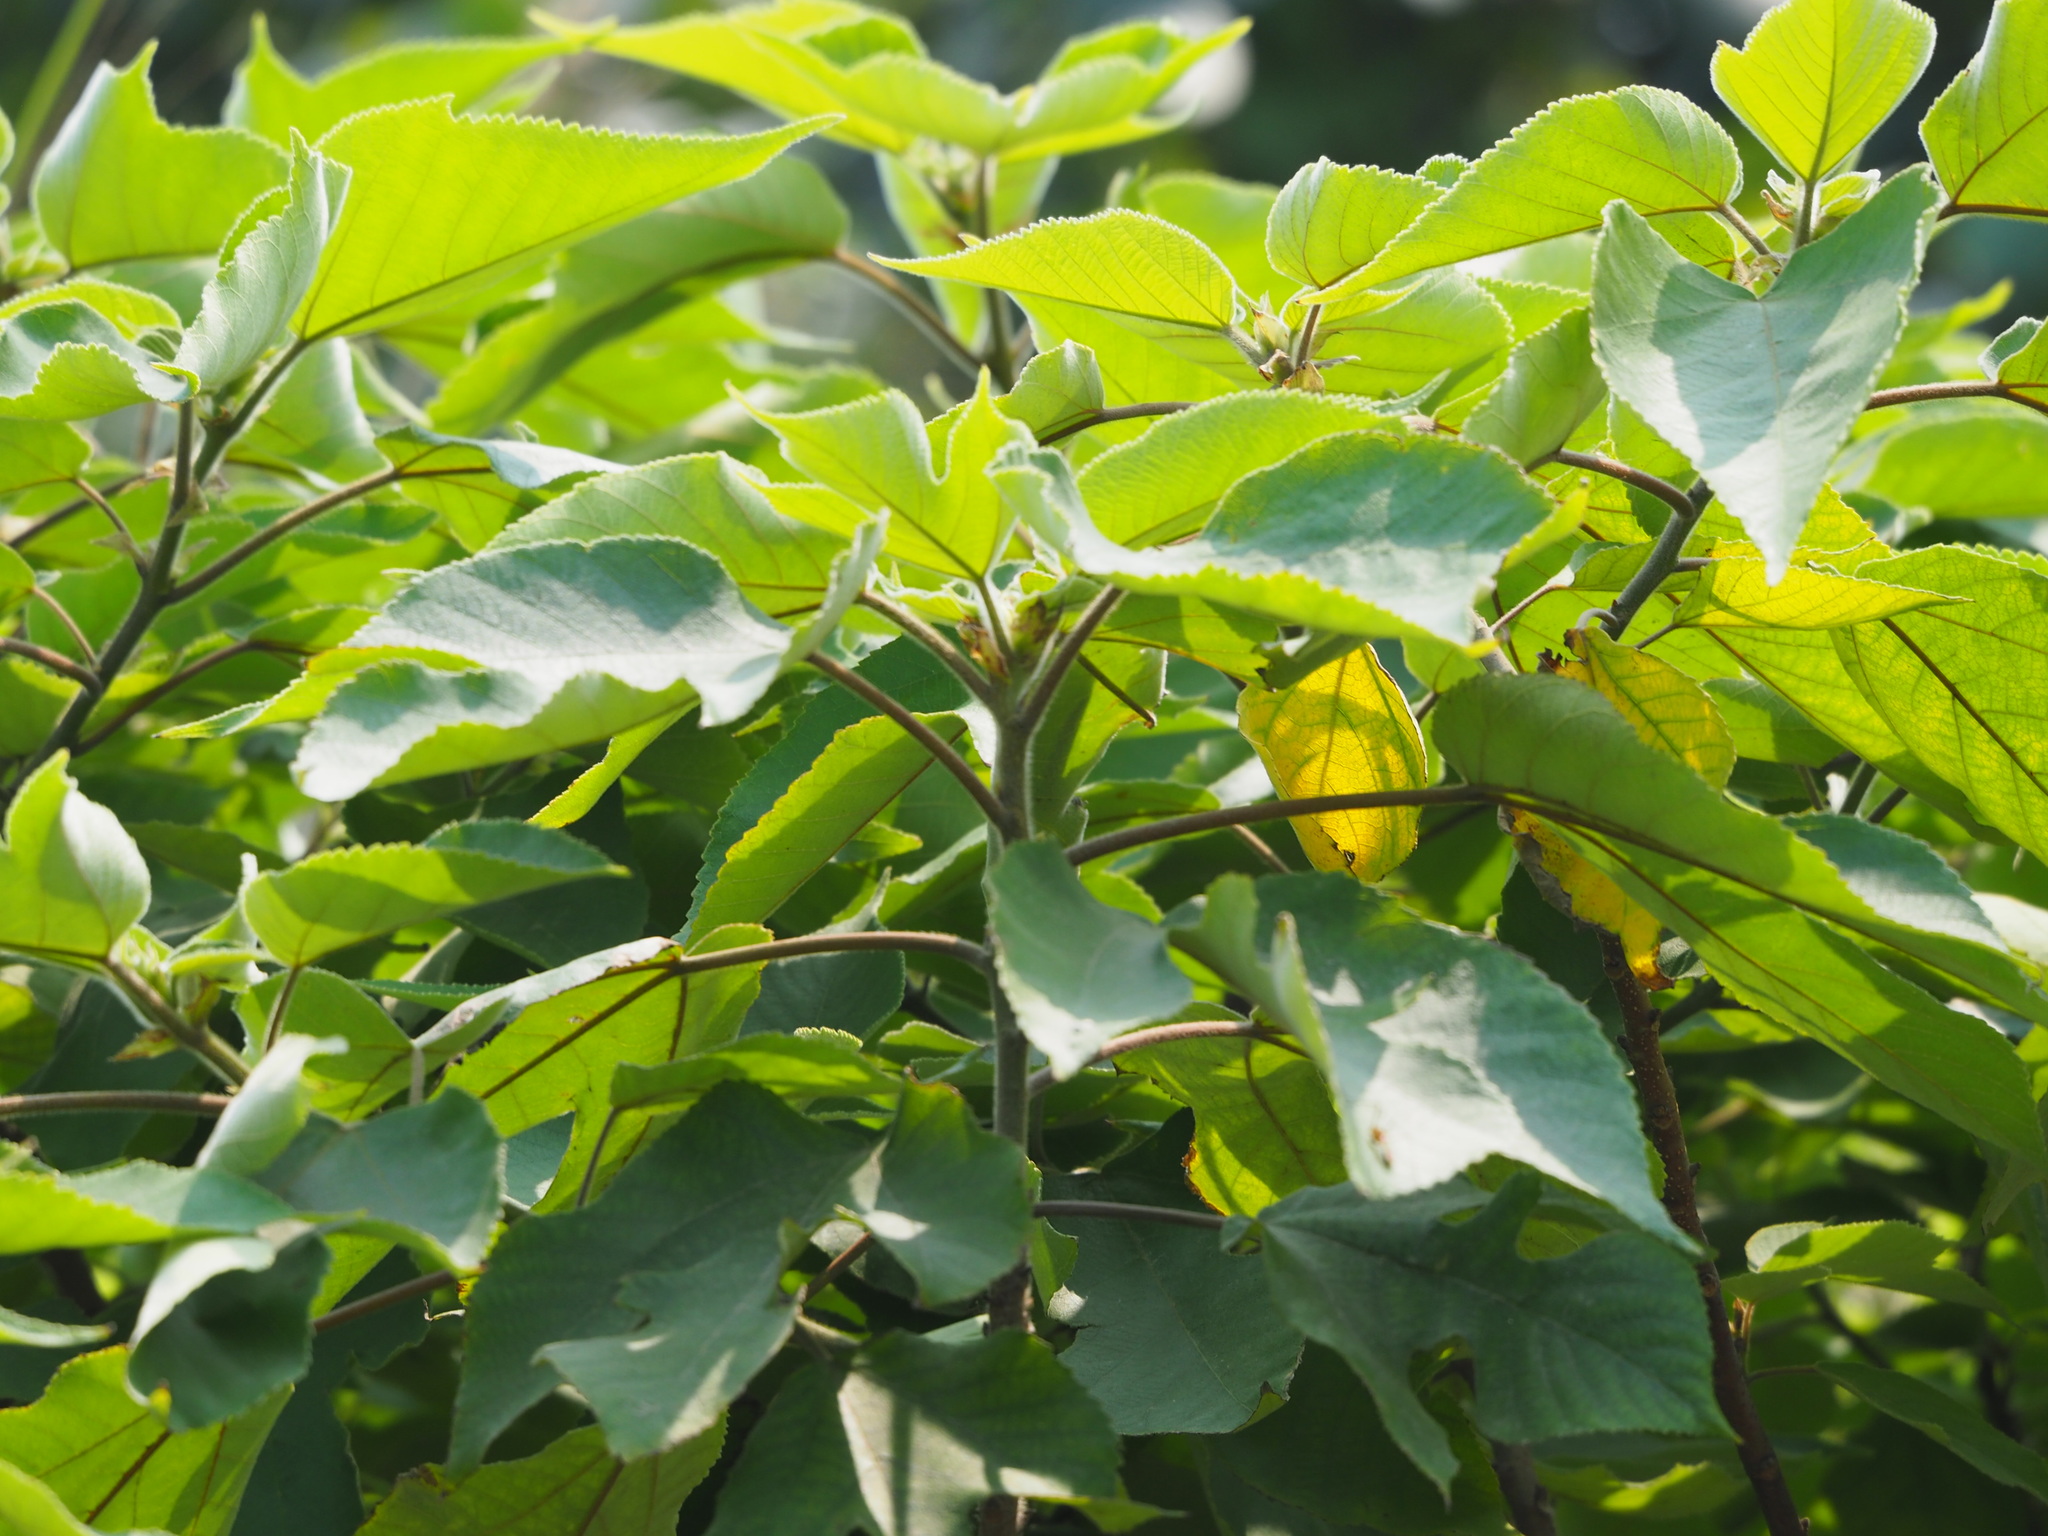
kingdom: Plantae
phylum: Tracheophyta
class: Magnoliopsida
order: Rosales
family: Moraceae
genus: Broussonetia
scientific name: Broussonetia papyrifera
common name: Paper mulberry
